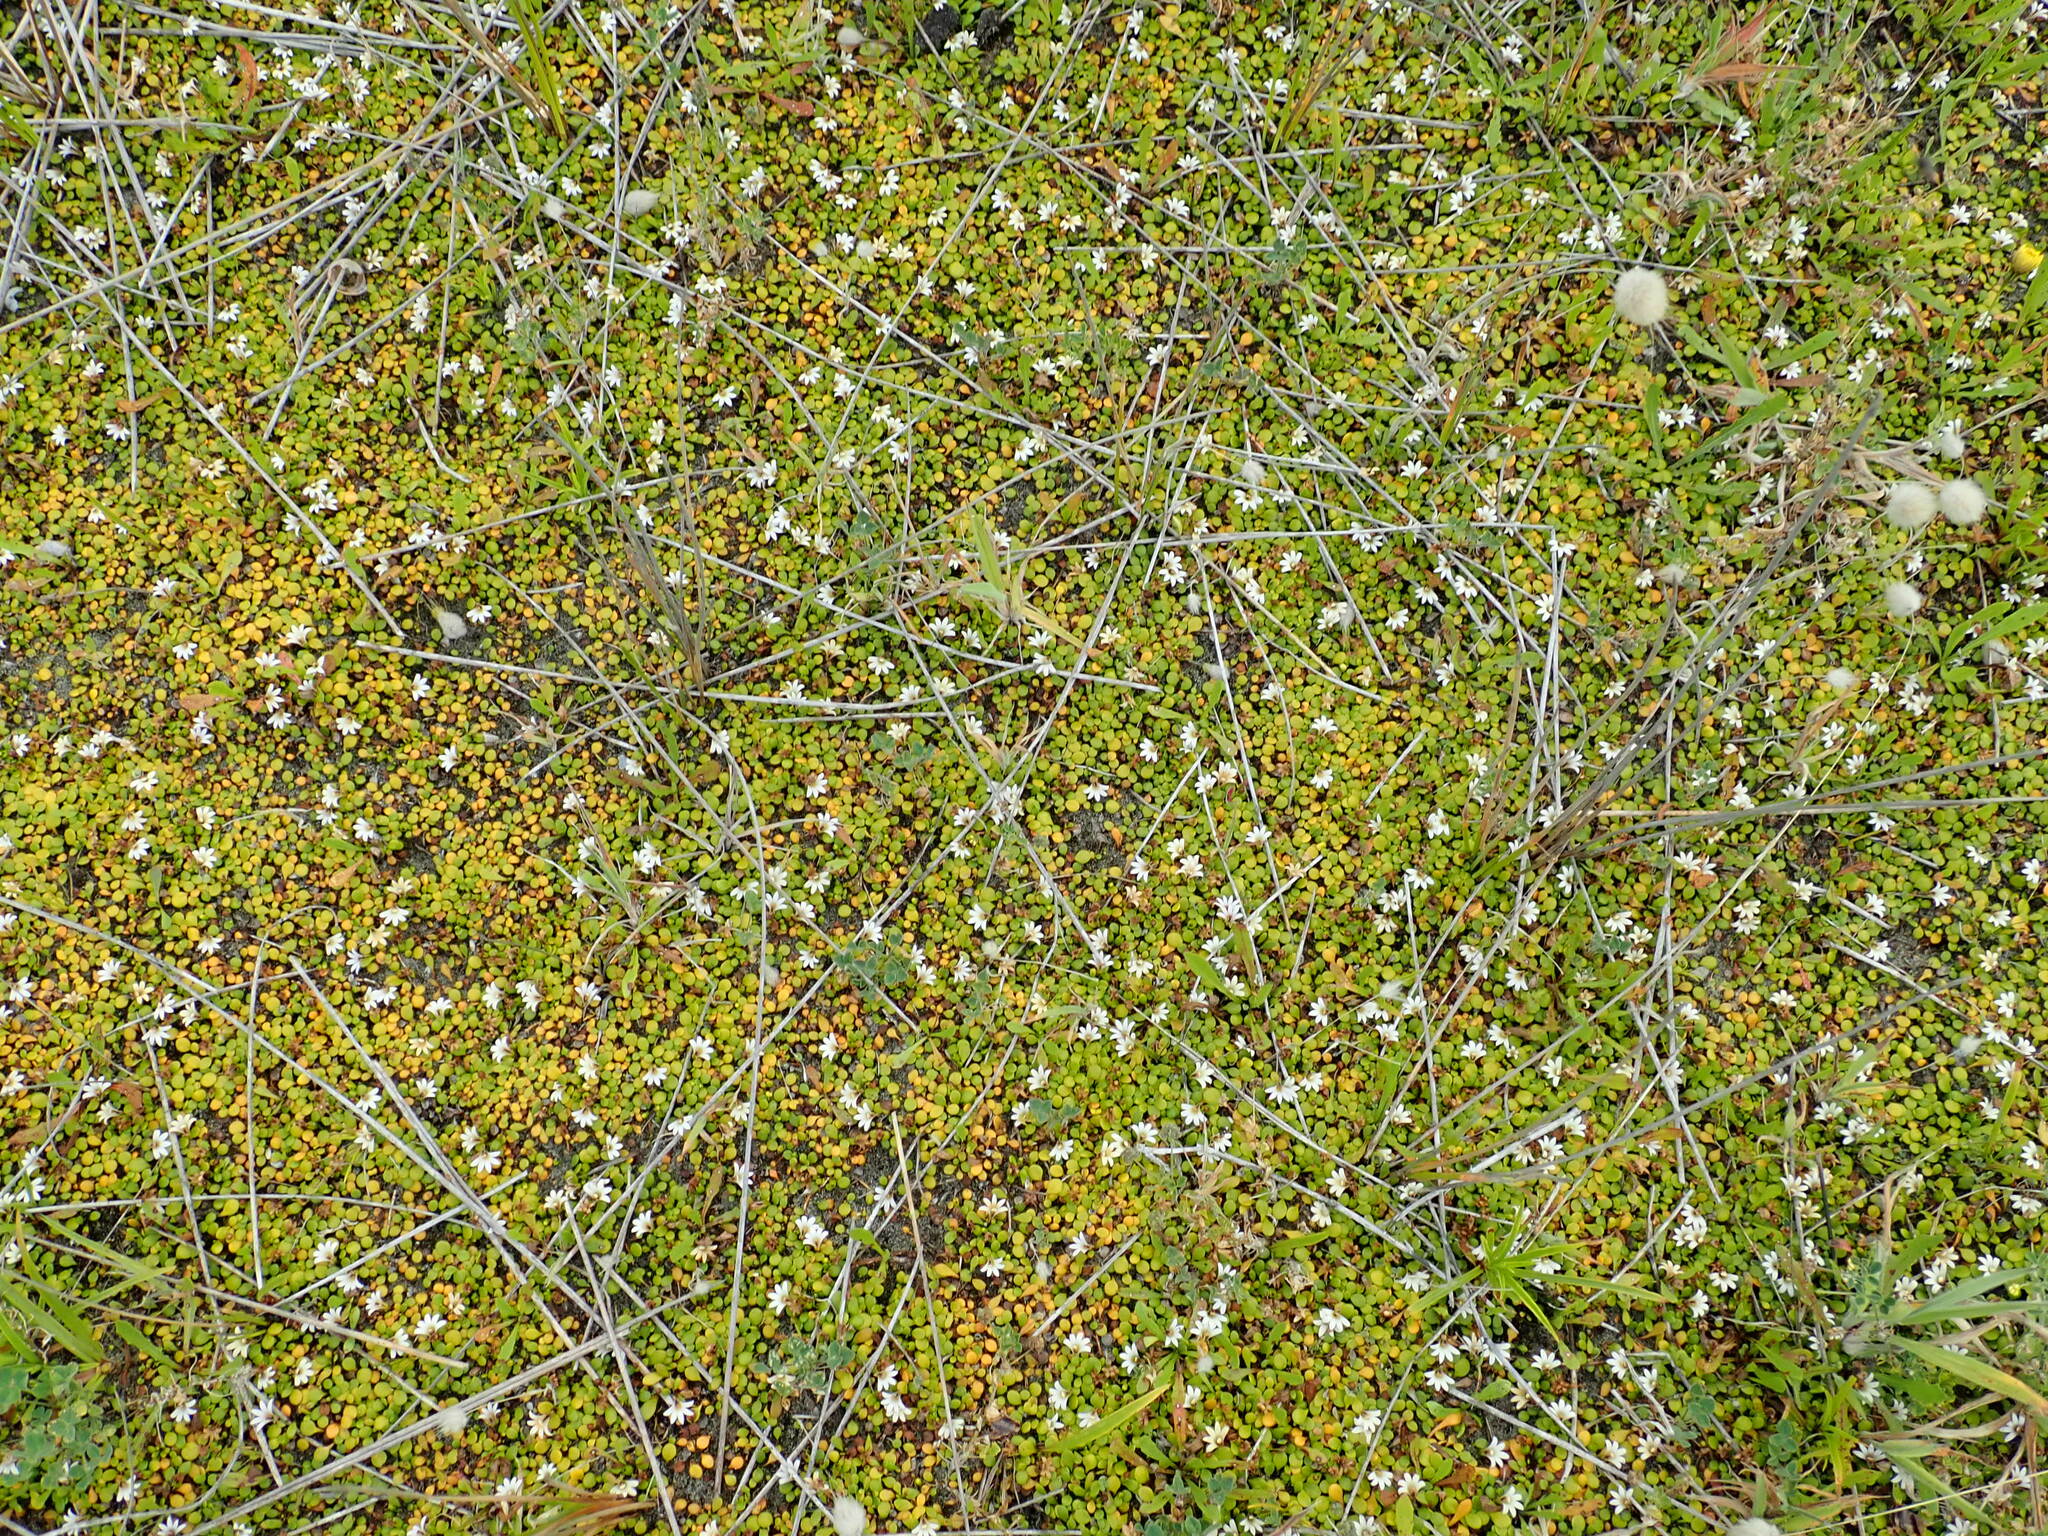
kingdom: Plantae
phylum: Tracheophyta
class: Magnoliopsida
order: Asterales
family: Goodeniaceae
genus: Goodenia
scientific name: Goodenia heenanii
